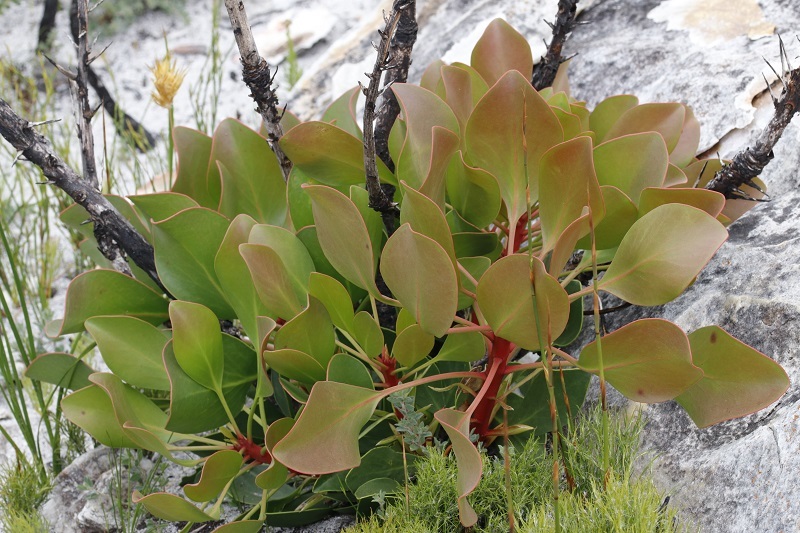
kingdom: Plantae
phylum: Tracheophyta
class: Magnoliopsida
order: Proteales
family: Proteaceae
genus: Protea
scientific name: Protea cynaroides
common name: King protea
